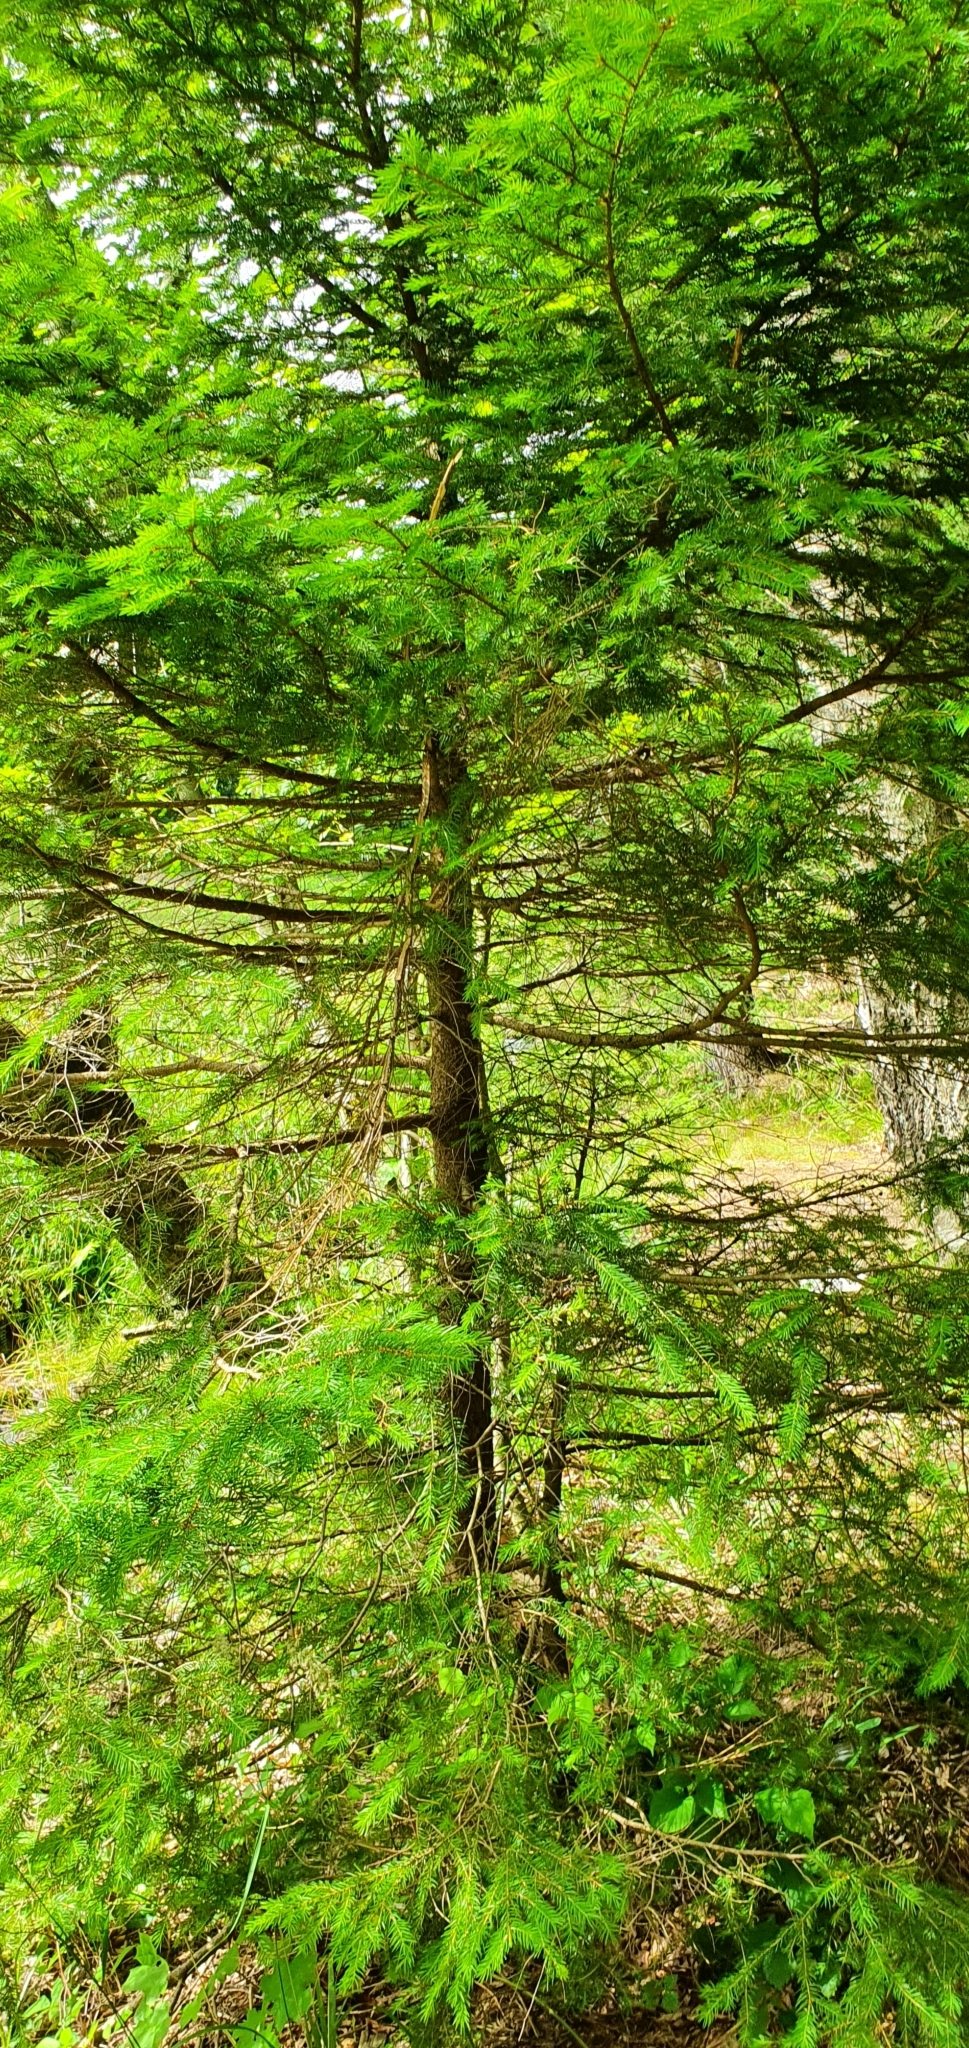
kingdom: Plantae
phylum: Tracheophyta
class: Pinopsida
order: Pinales
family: Pinaceae
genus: Picea
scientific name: Picea abies
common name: Norway spruce
